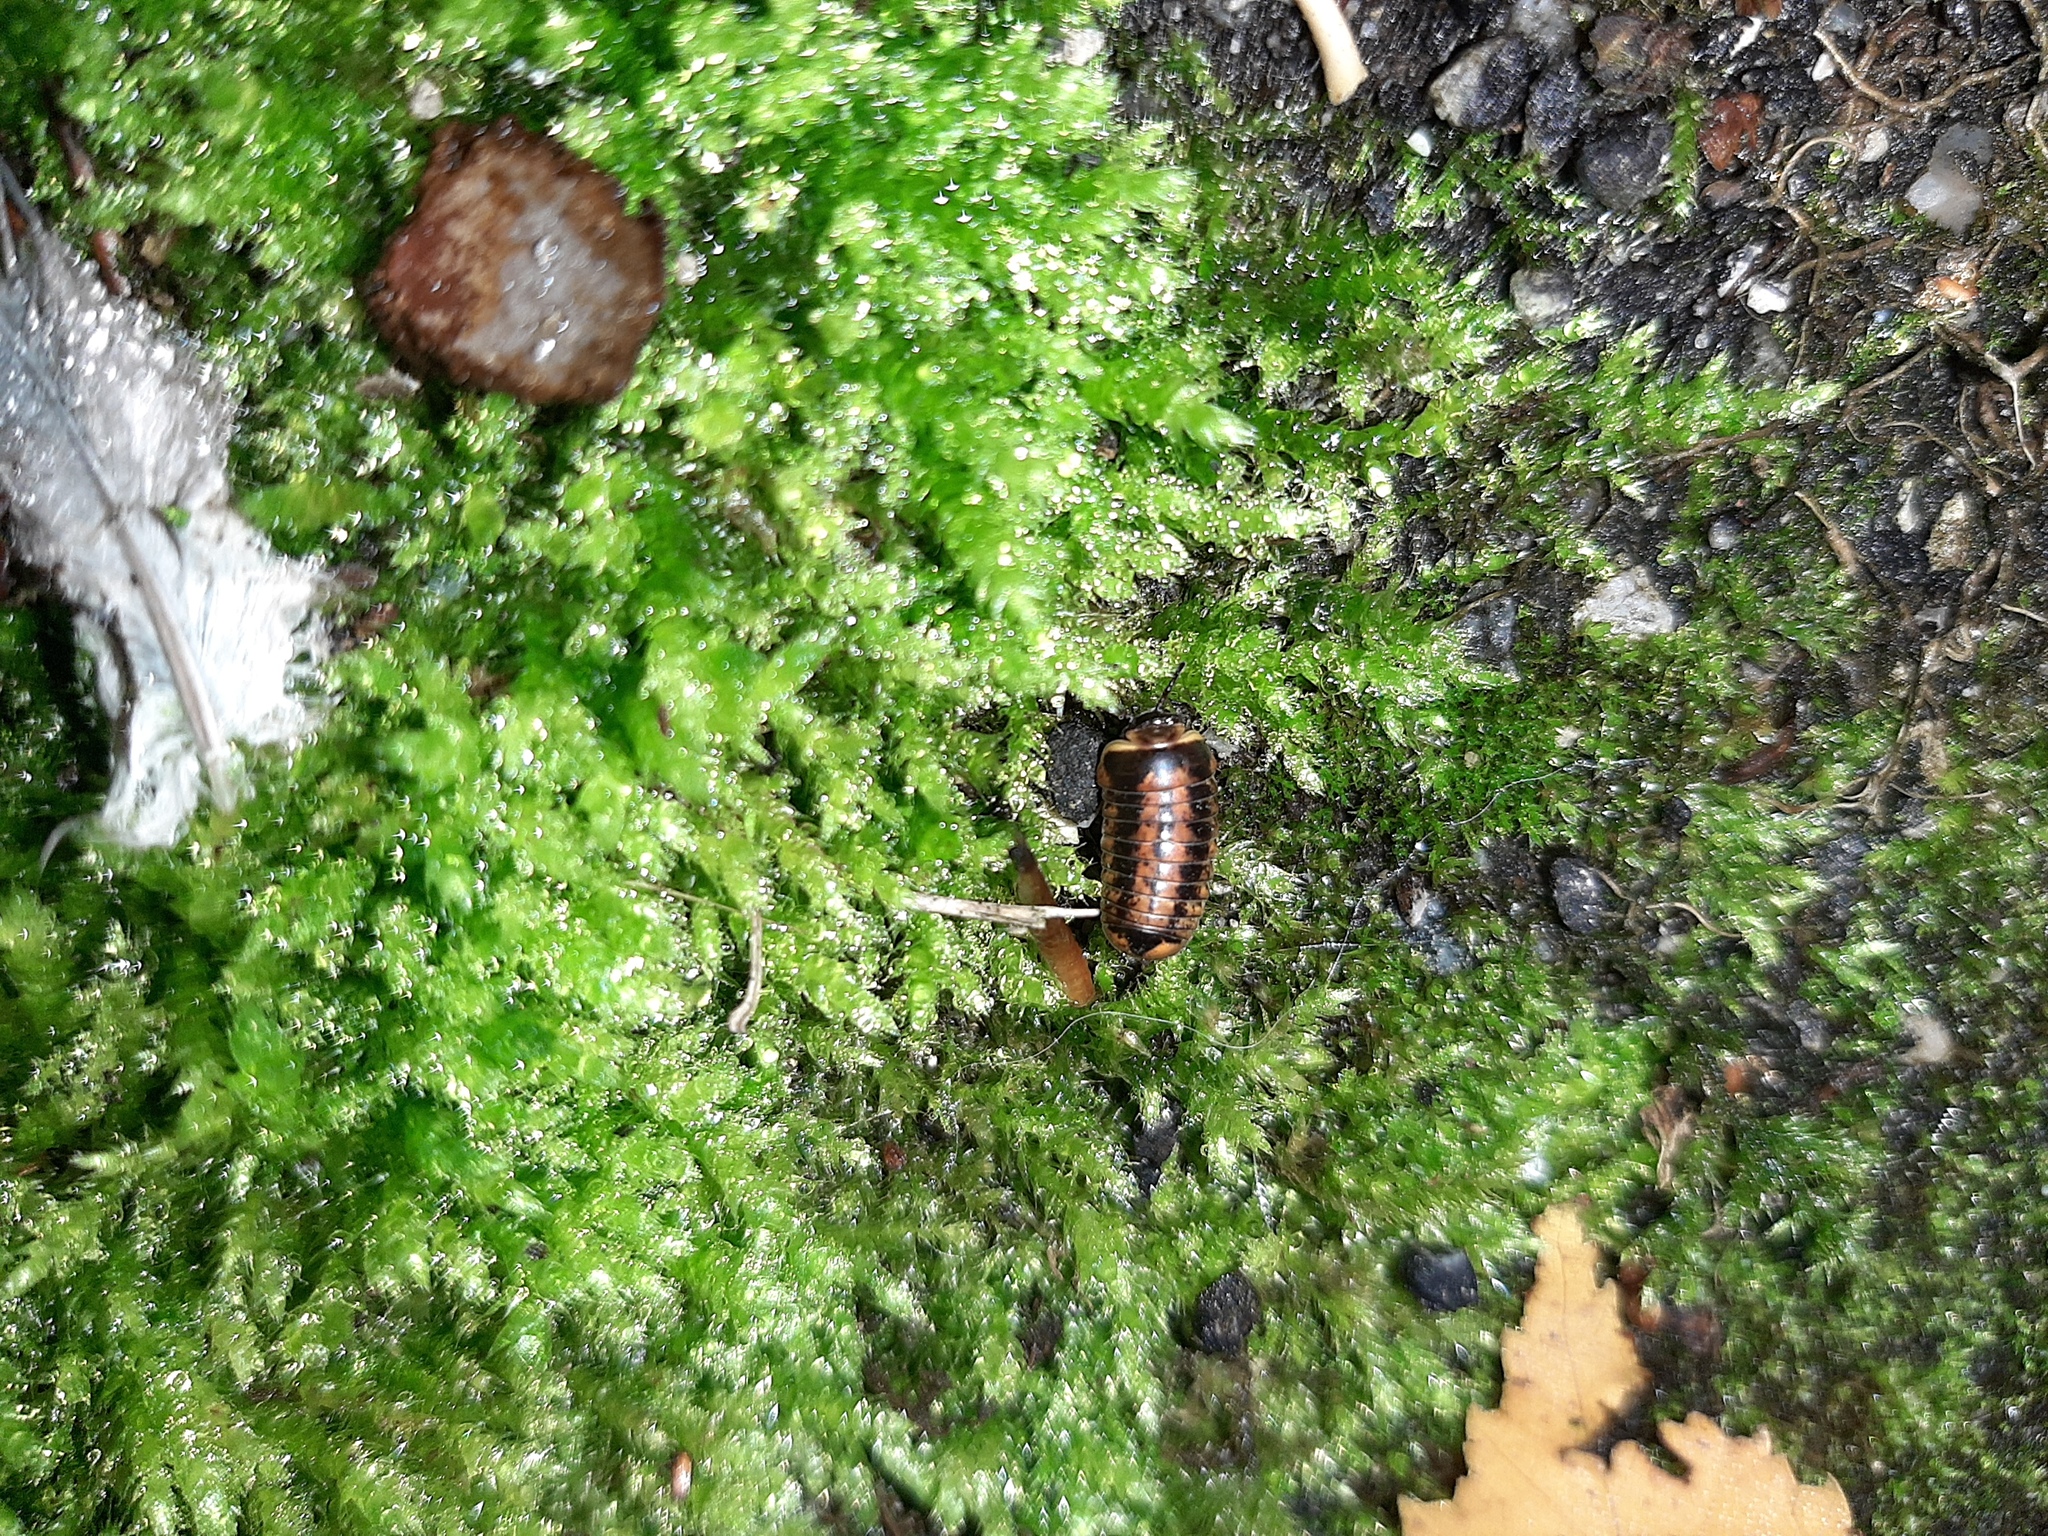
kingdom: Animalia
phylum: Arthropoda
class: Diplopoda
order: Glomerida
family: Glomeridae
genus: Glomeris
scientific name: Glomeris klugii
